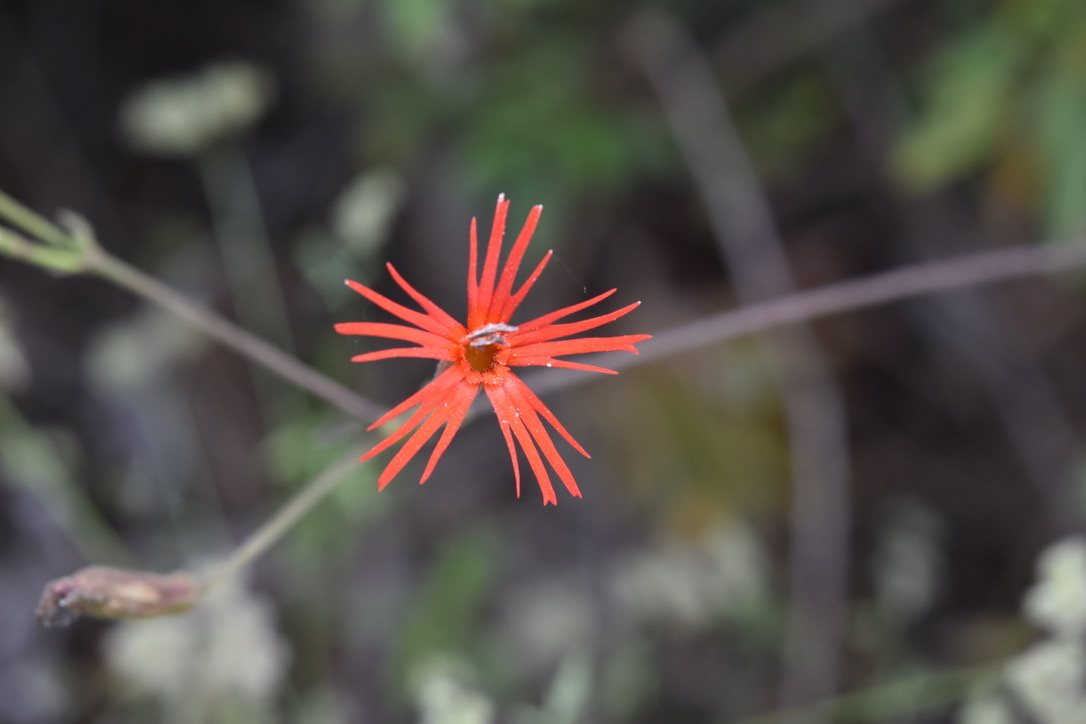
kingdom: Plantae
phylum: Tracheophyta
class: Magnoliopsida
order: Caryophyllales
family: Caryophyllaceae
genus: Silene
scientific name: Silene laciniata
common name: Indian-pink
